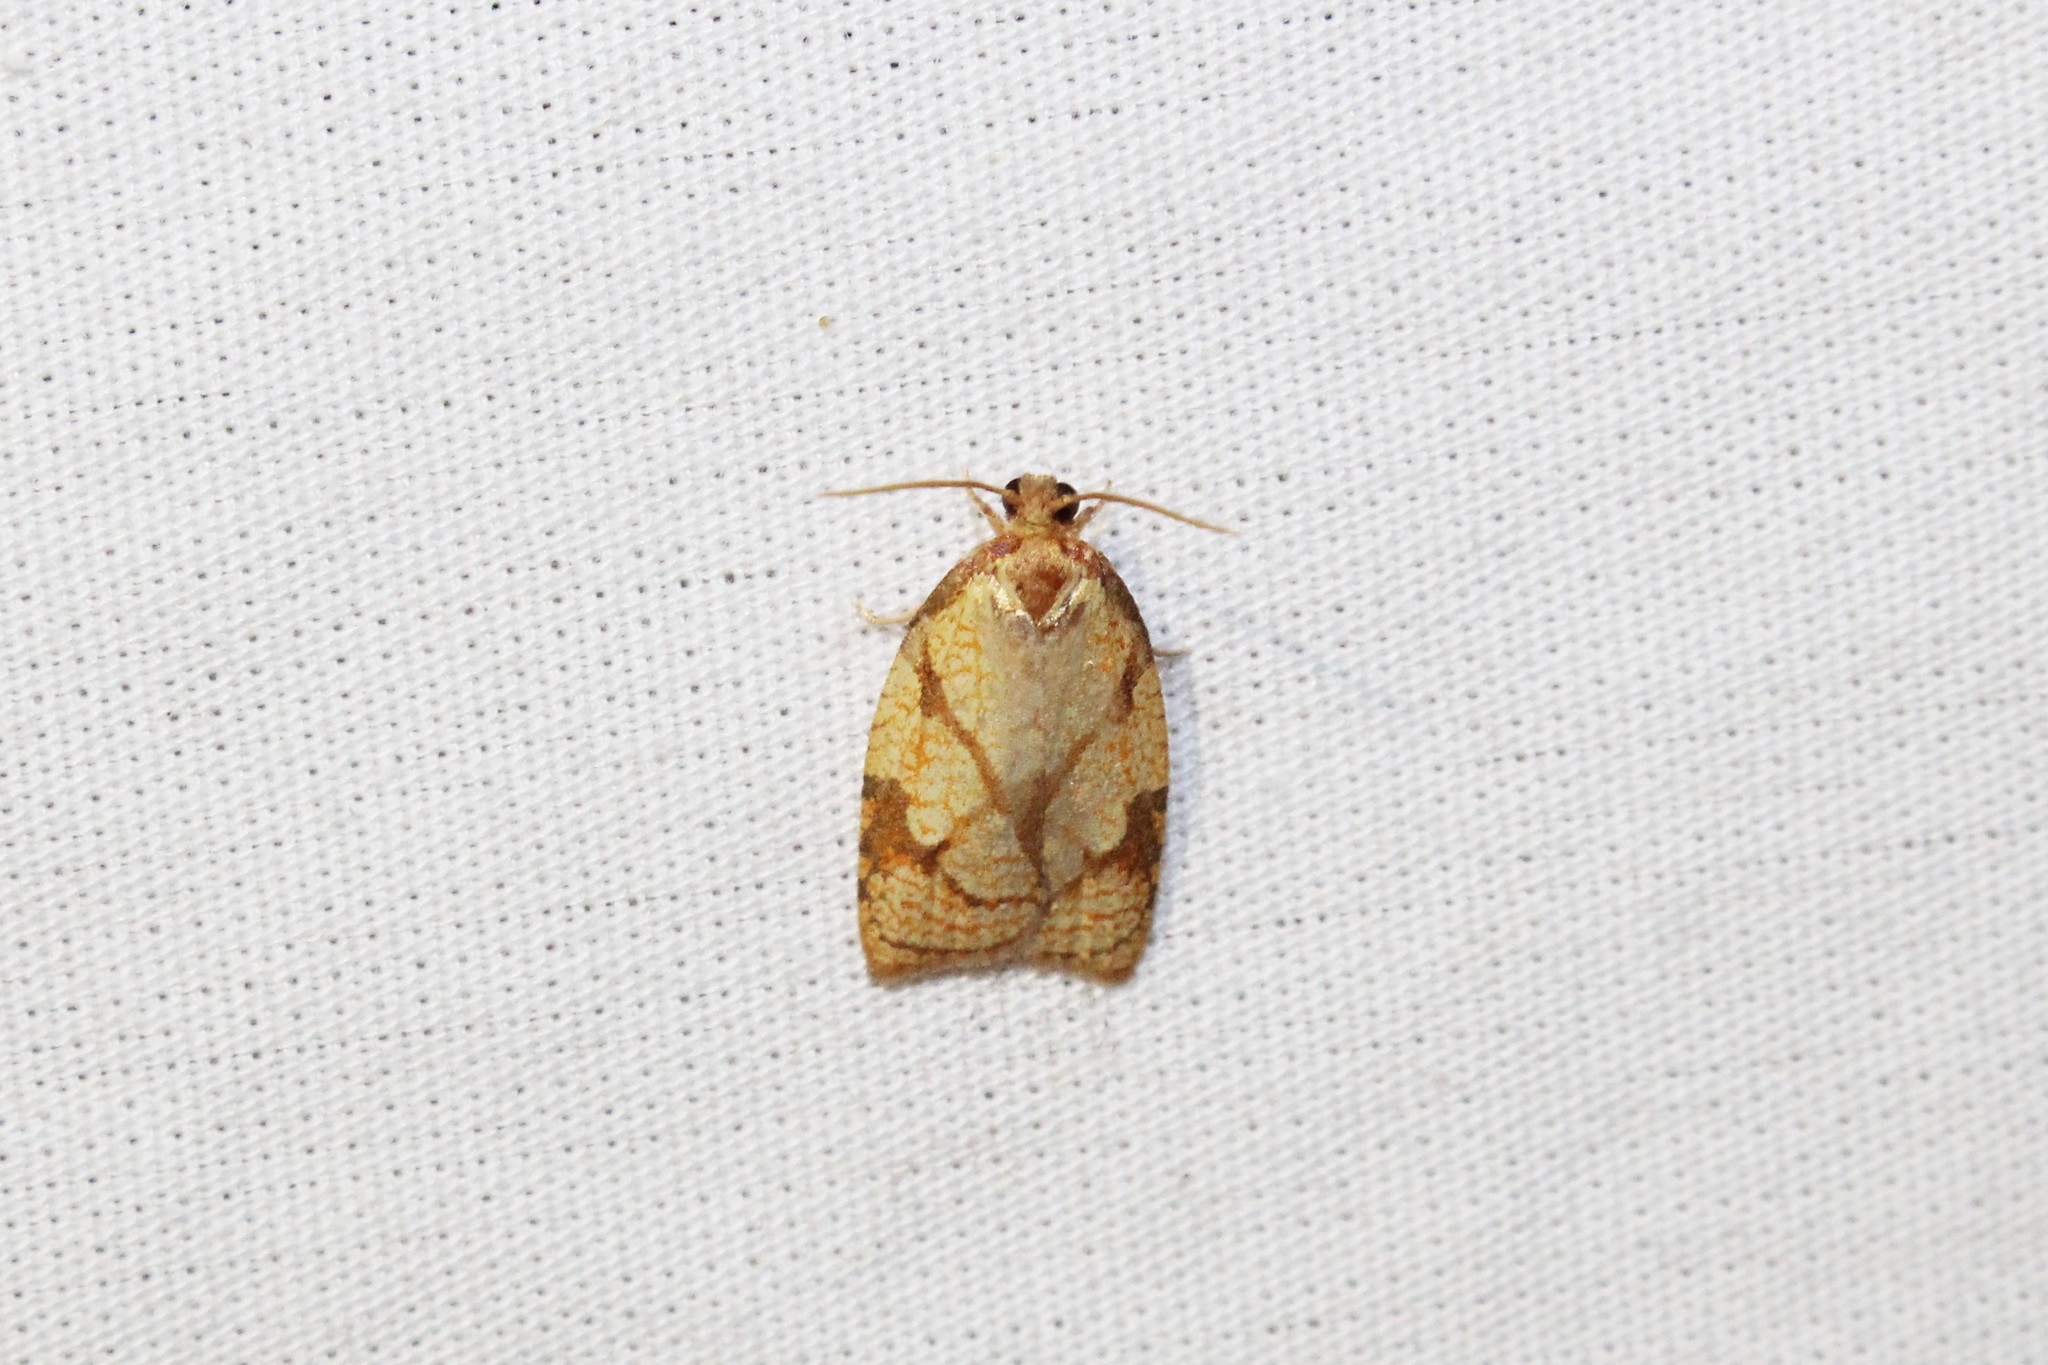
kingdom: Animalia
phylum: Arthropoda
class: Insecta
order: Lepidoptera
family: Tortricidae
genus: Cenopis
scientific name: Cenopis reticulatana
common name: Reticulated fruitworm moth
